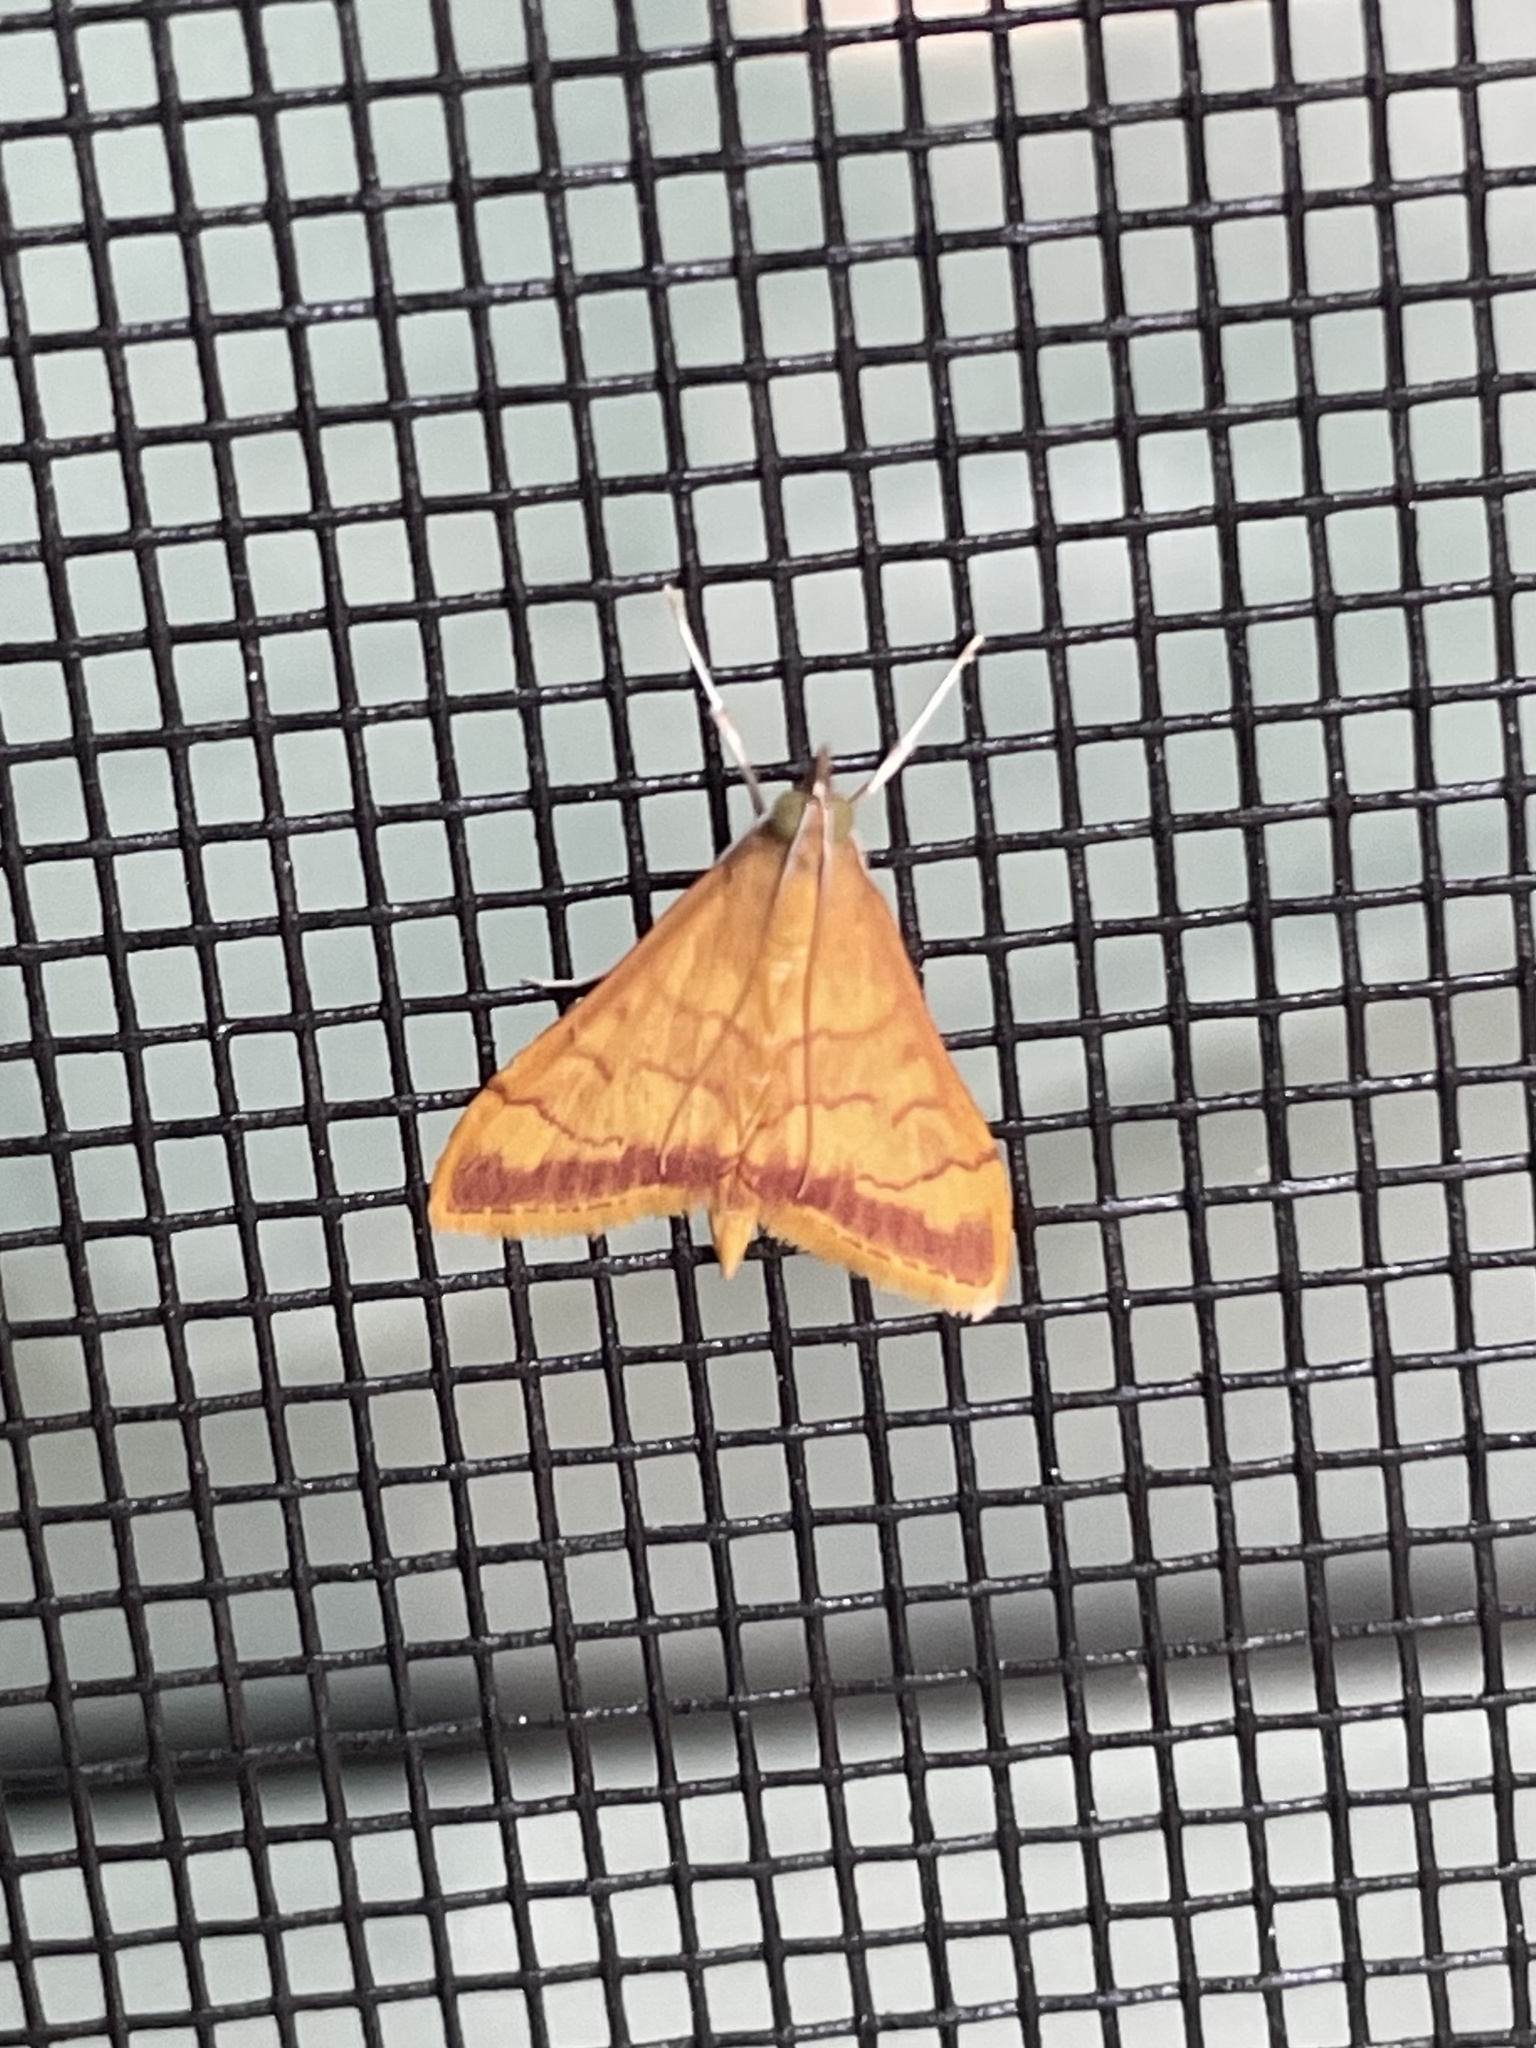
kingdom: Animalia
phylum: Arthropoda
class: Insecta
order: Lepidoptera
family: Crambidae
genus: Pyrausta
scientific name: Pyrausta pseudonythesalis
